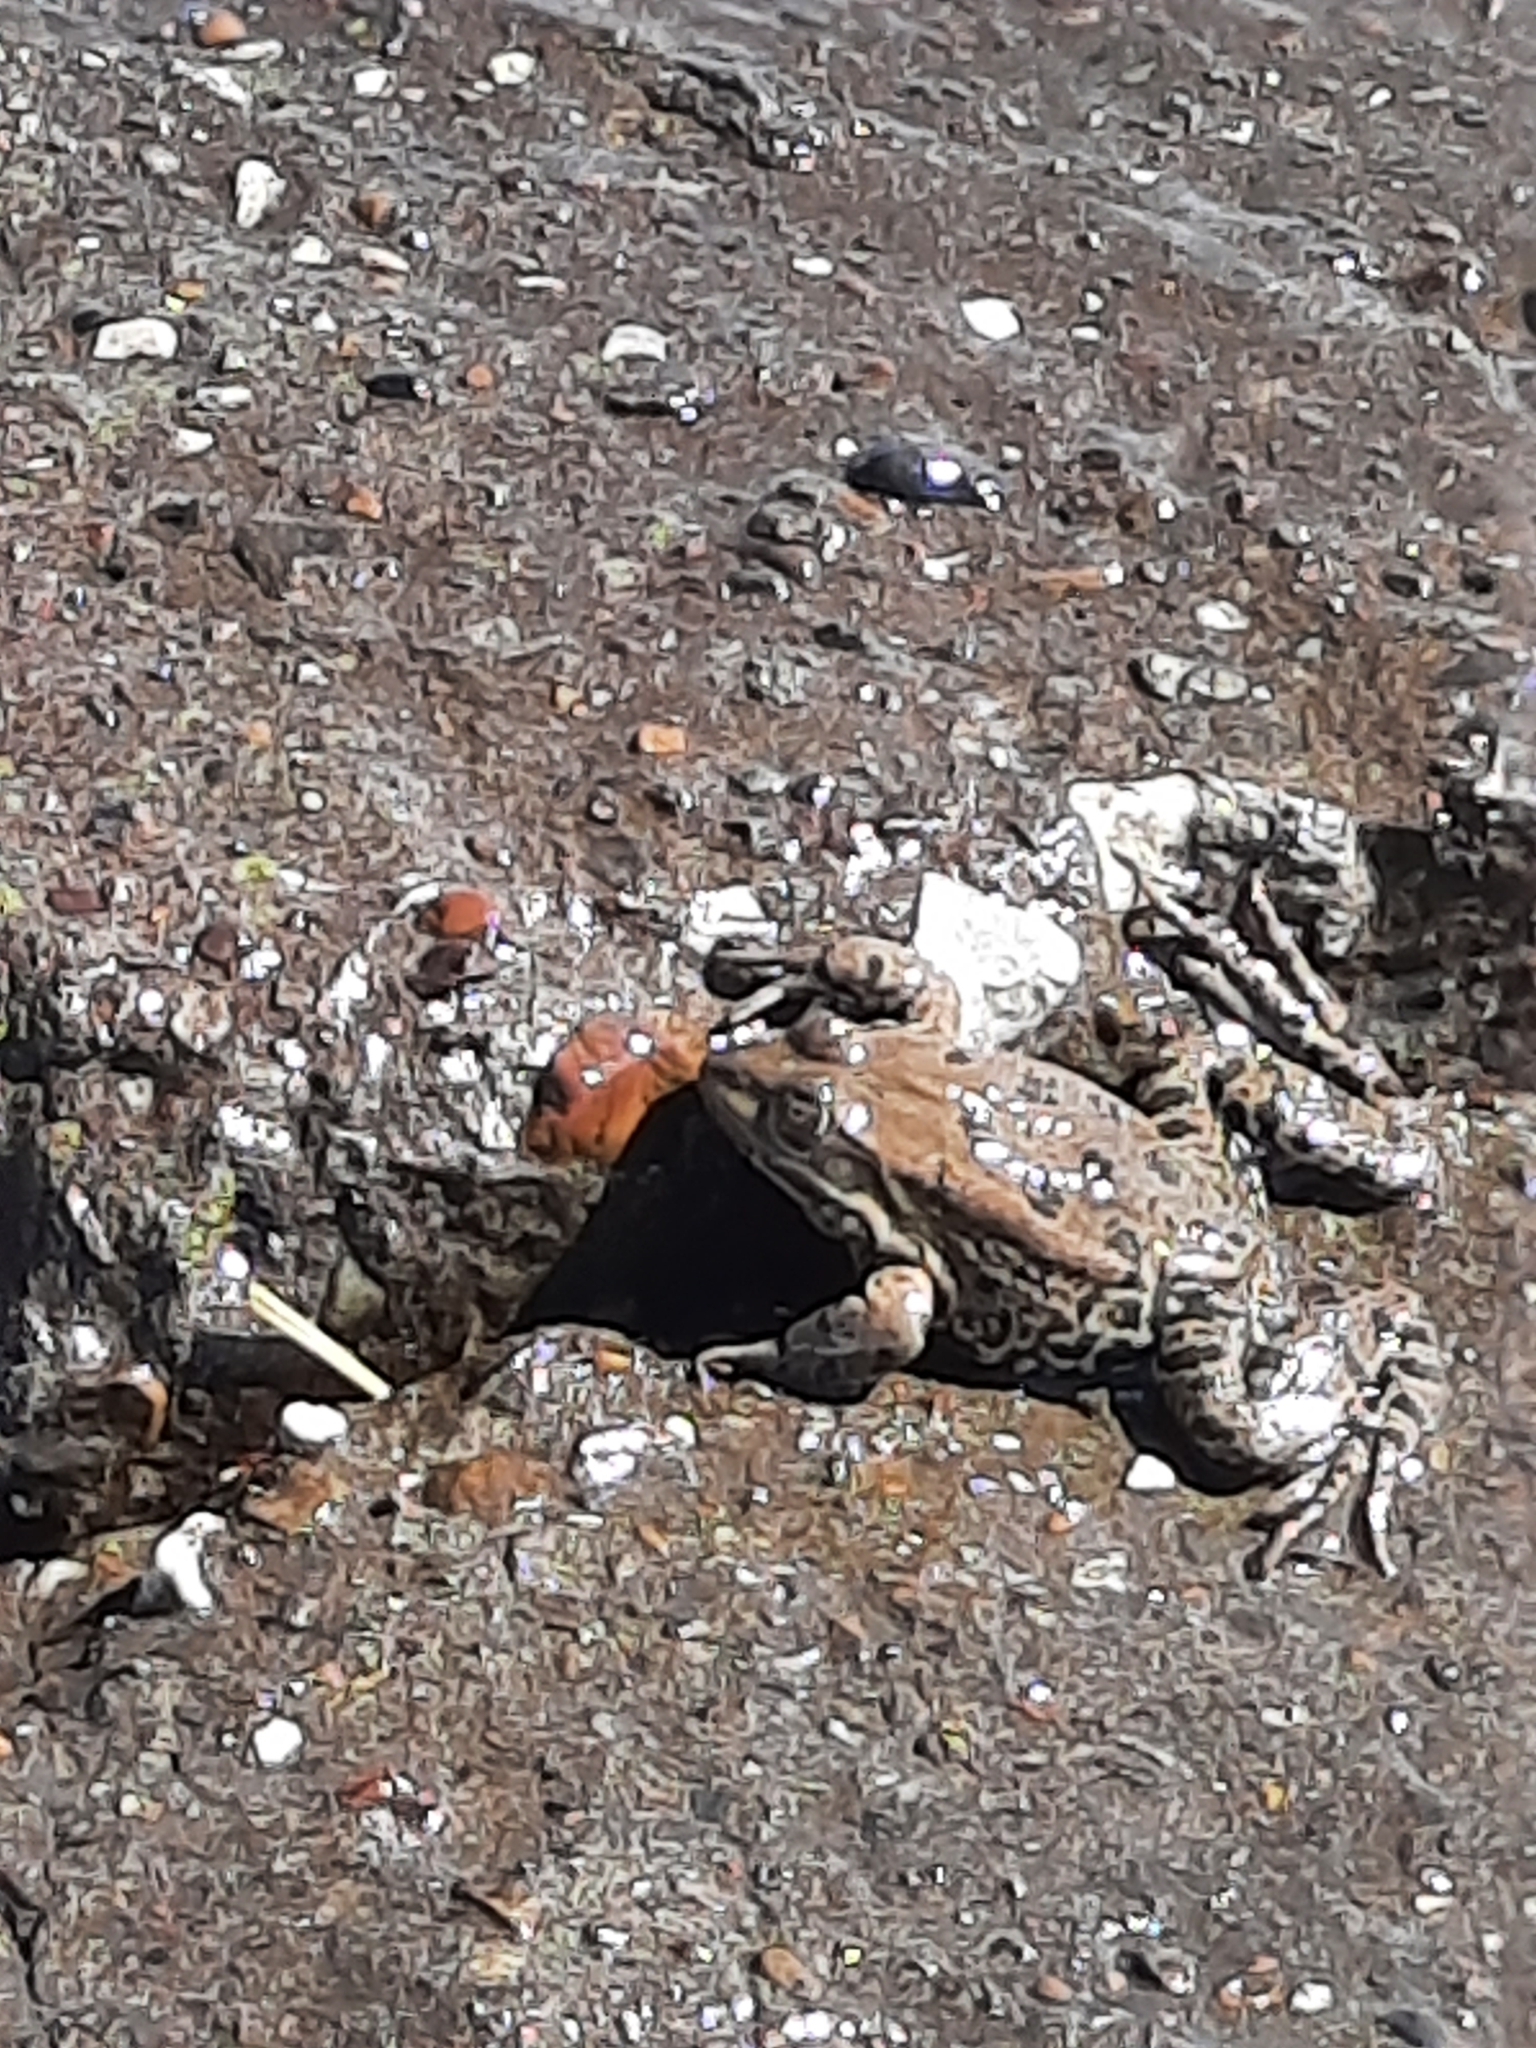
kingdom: Animalia
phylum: Chordata
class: Amphibia
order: Anura
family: Ranidae
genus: Pelophylax
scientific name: Pelophylax ridibundus
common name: Marsh frog
